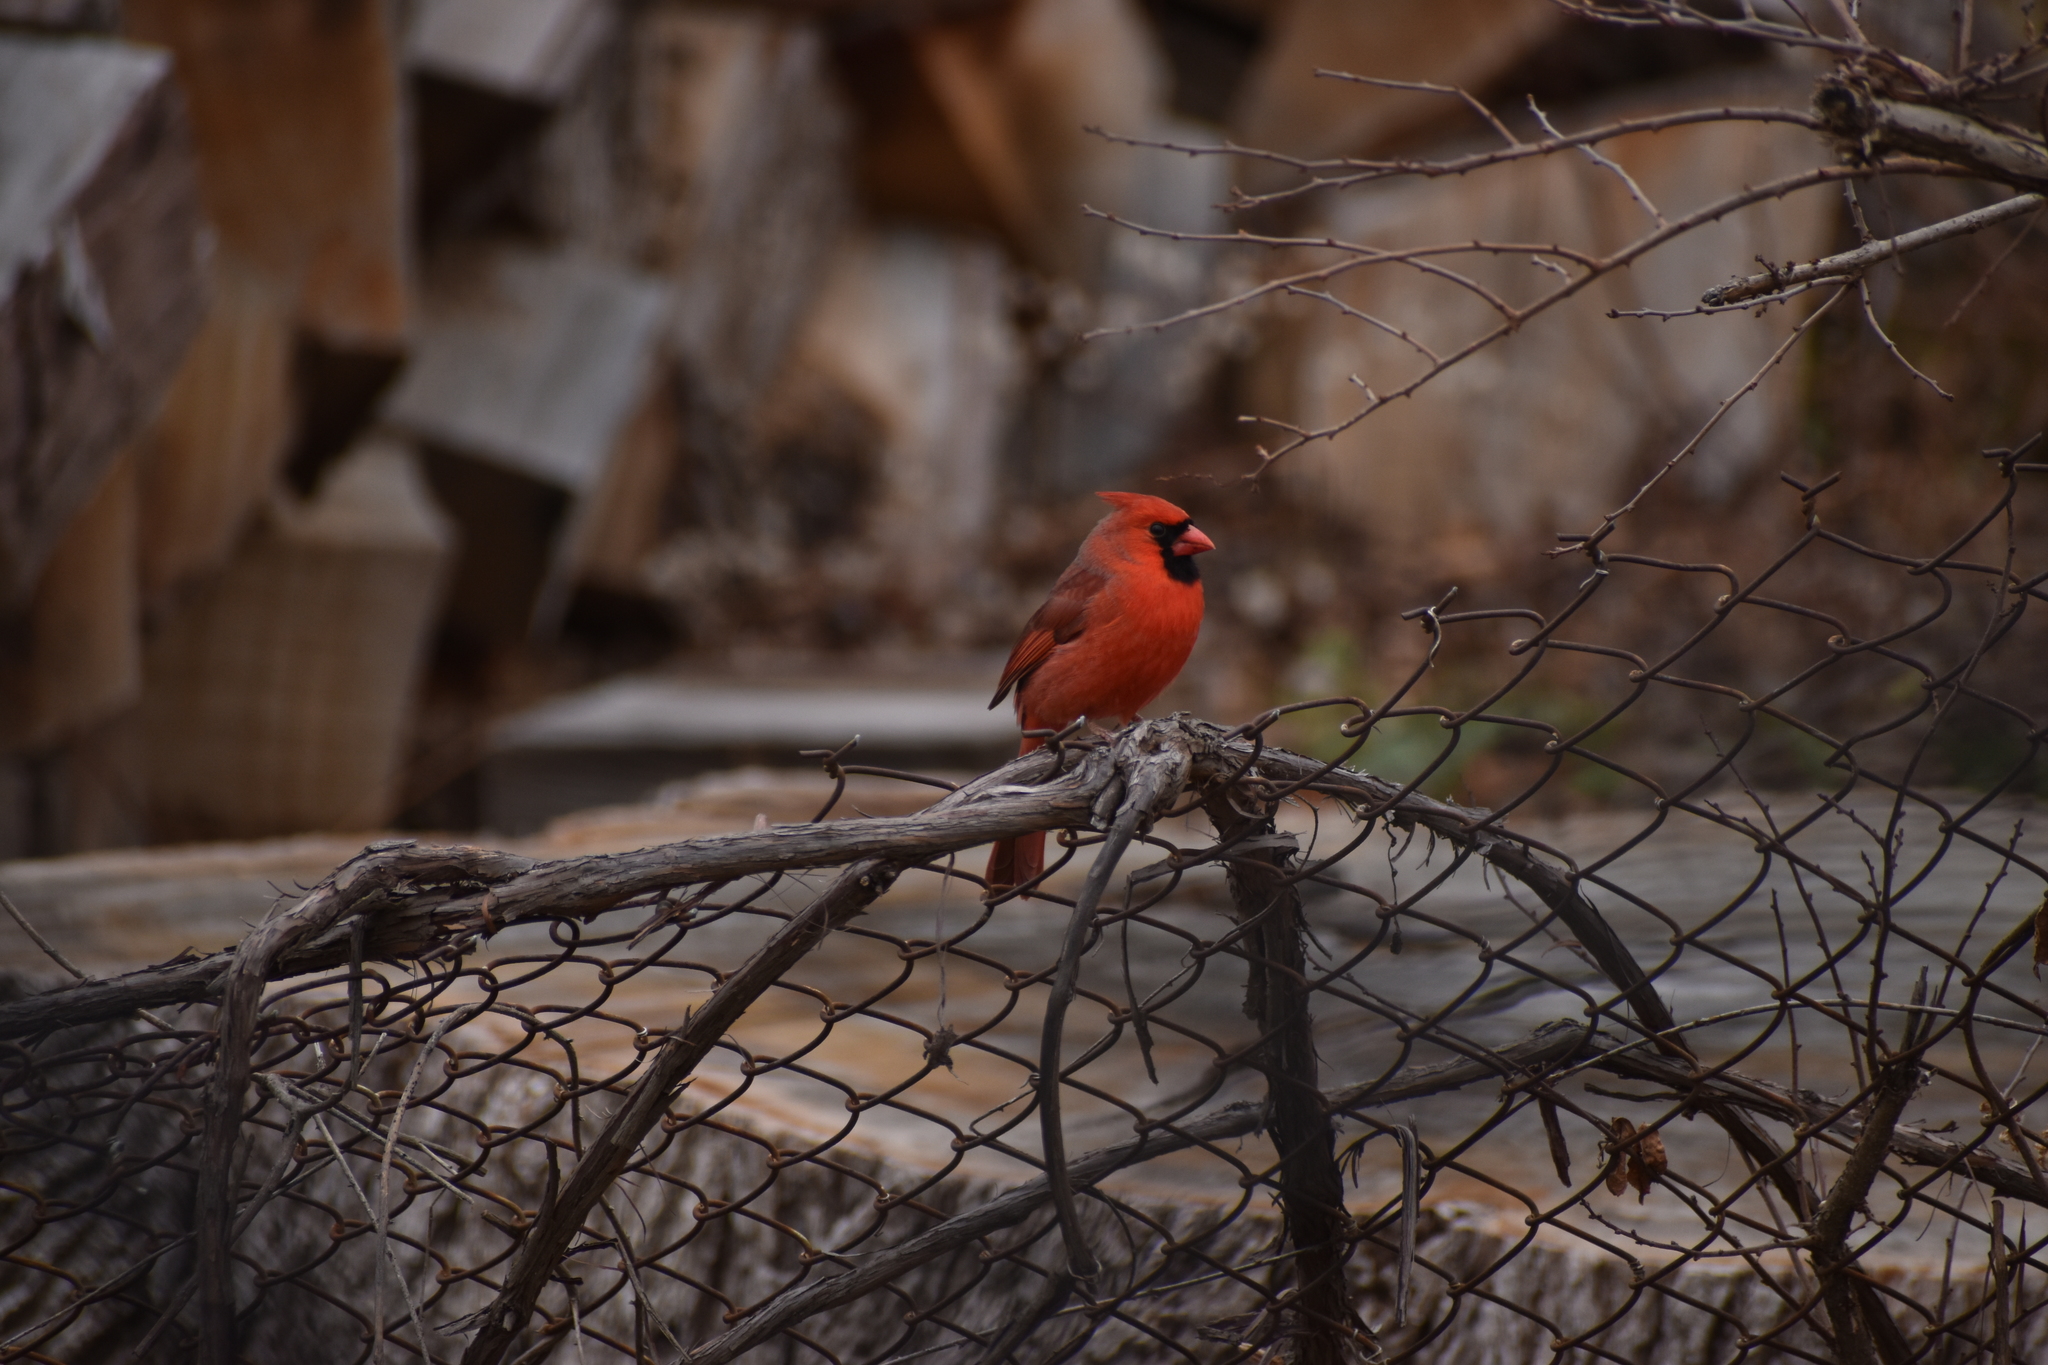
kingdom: Animalia
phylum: Chordata
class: Aves
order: Passeriformes
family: Cardinalidae
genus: Cardinalis
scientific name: Cardinalis cardinalis
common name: Northern cardinal
